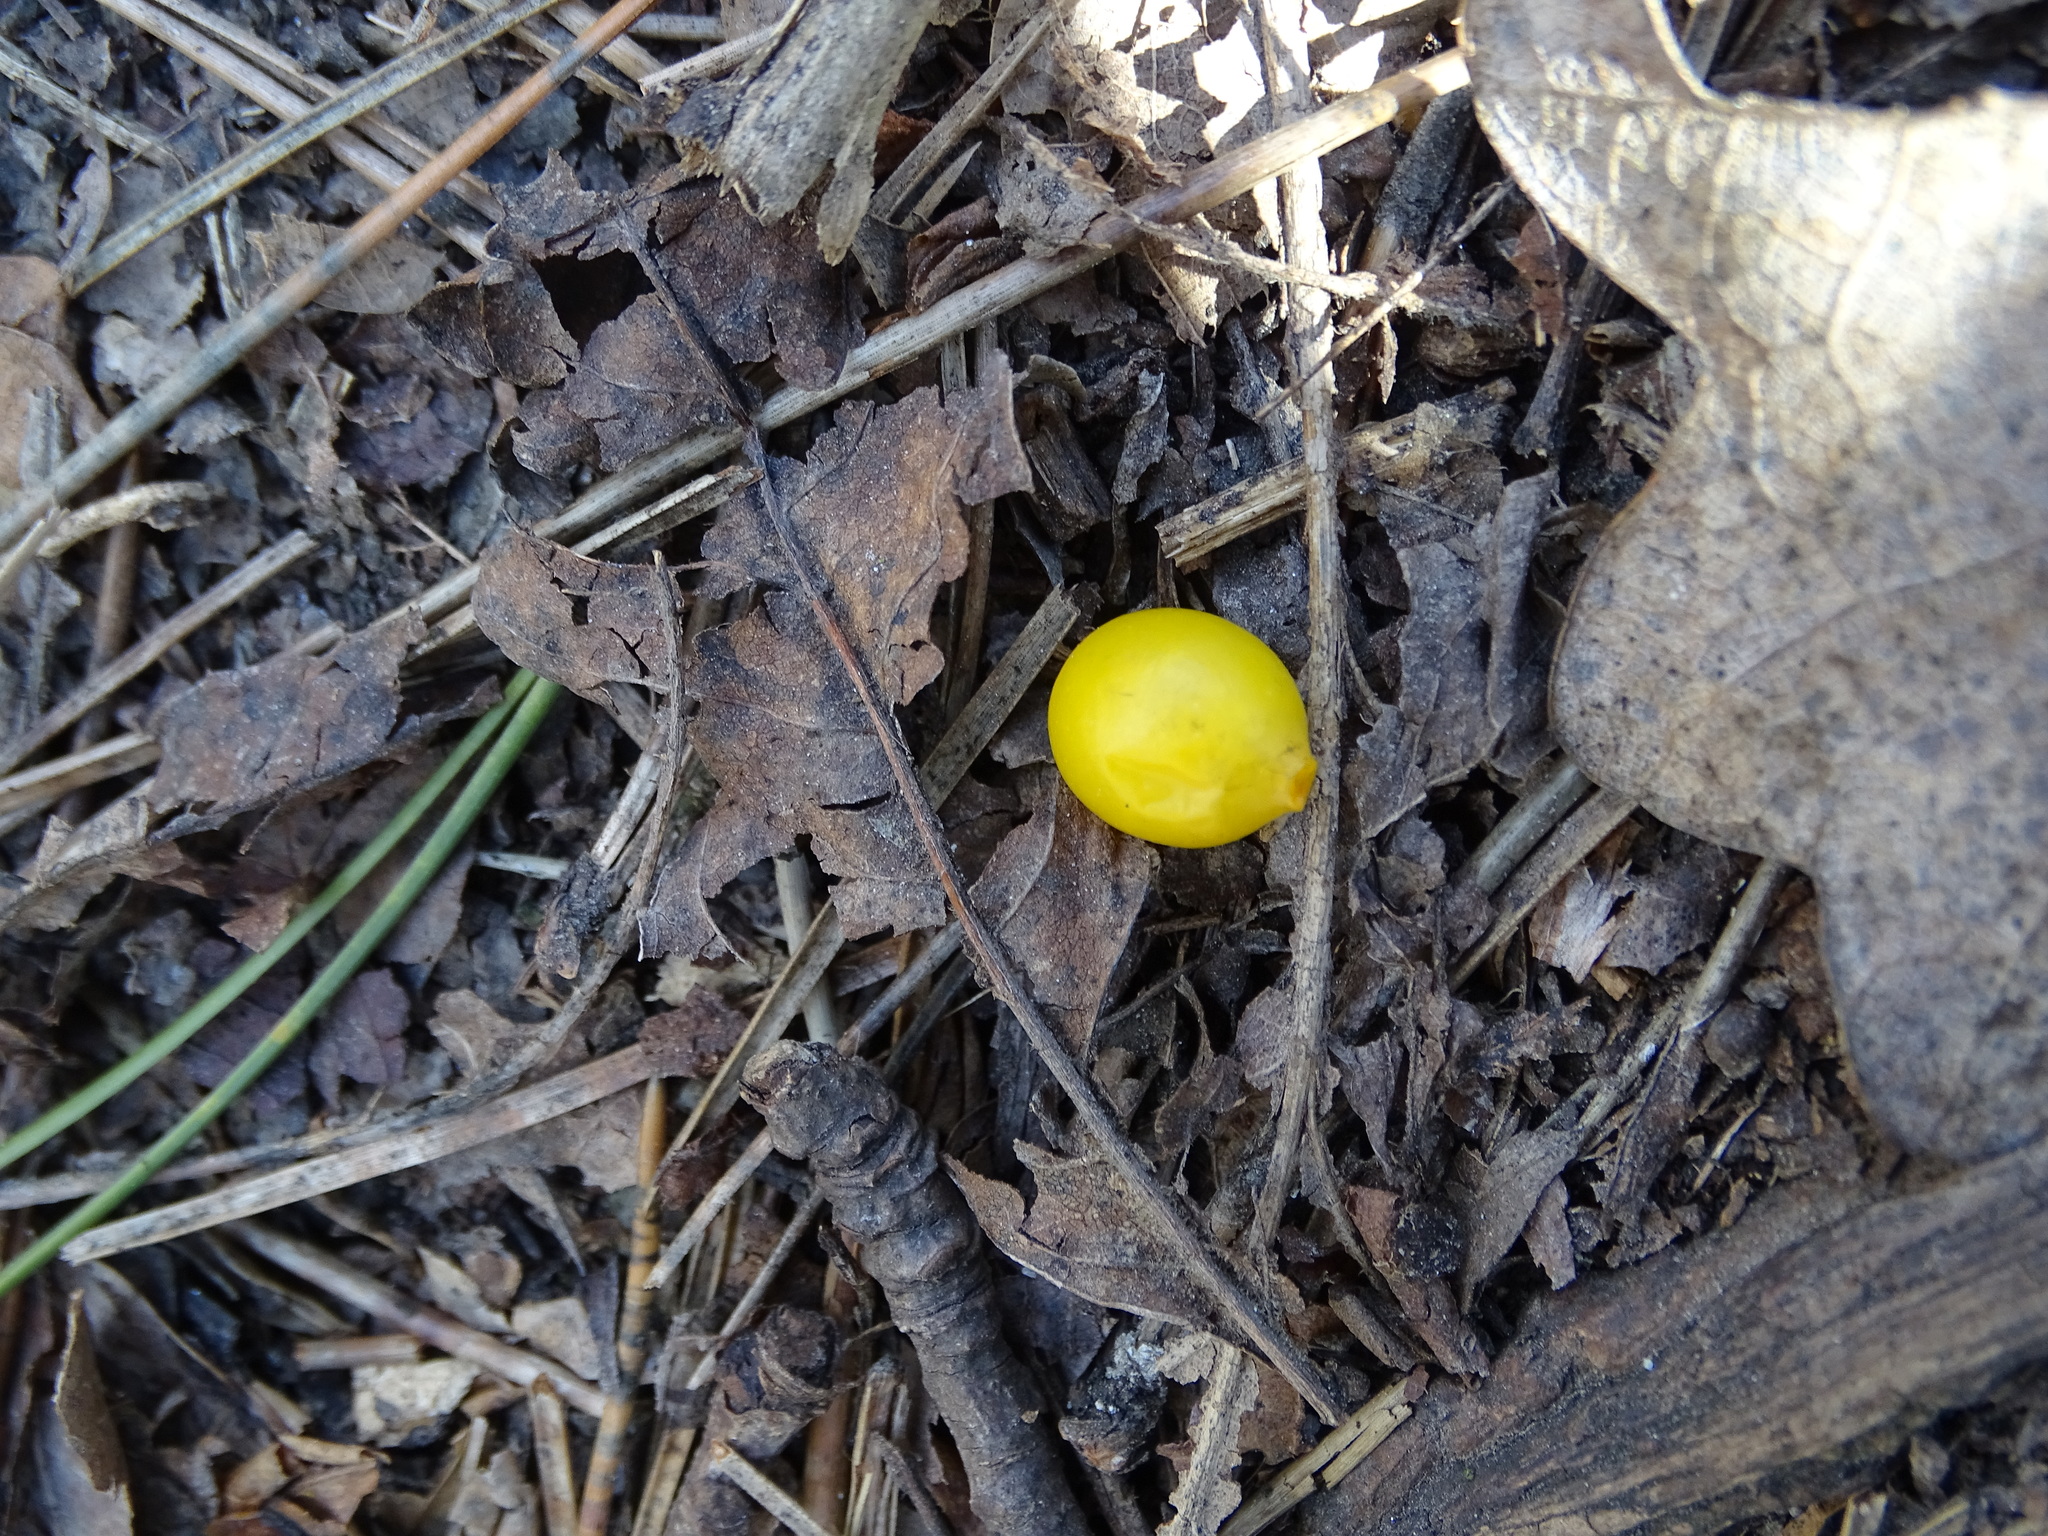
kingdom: Plantae
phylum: Tracheophyta
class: Magnoliopsida
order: Santalales
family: Loranthaceae
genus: Loranthus
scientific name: Loranthus europaeus
